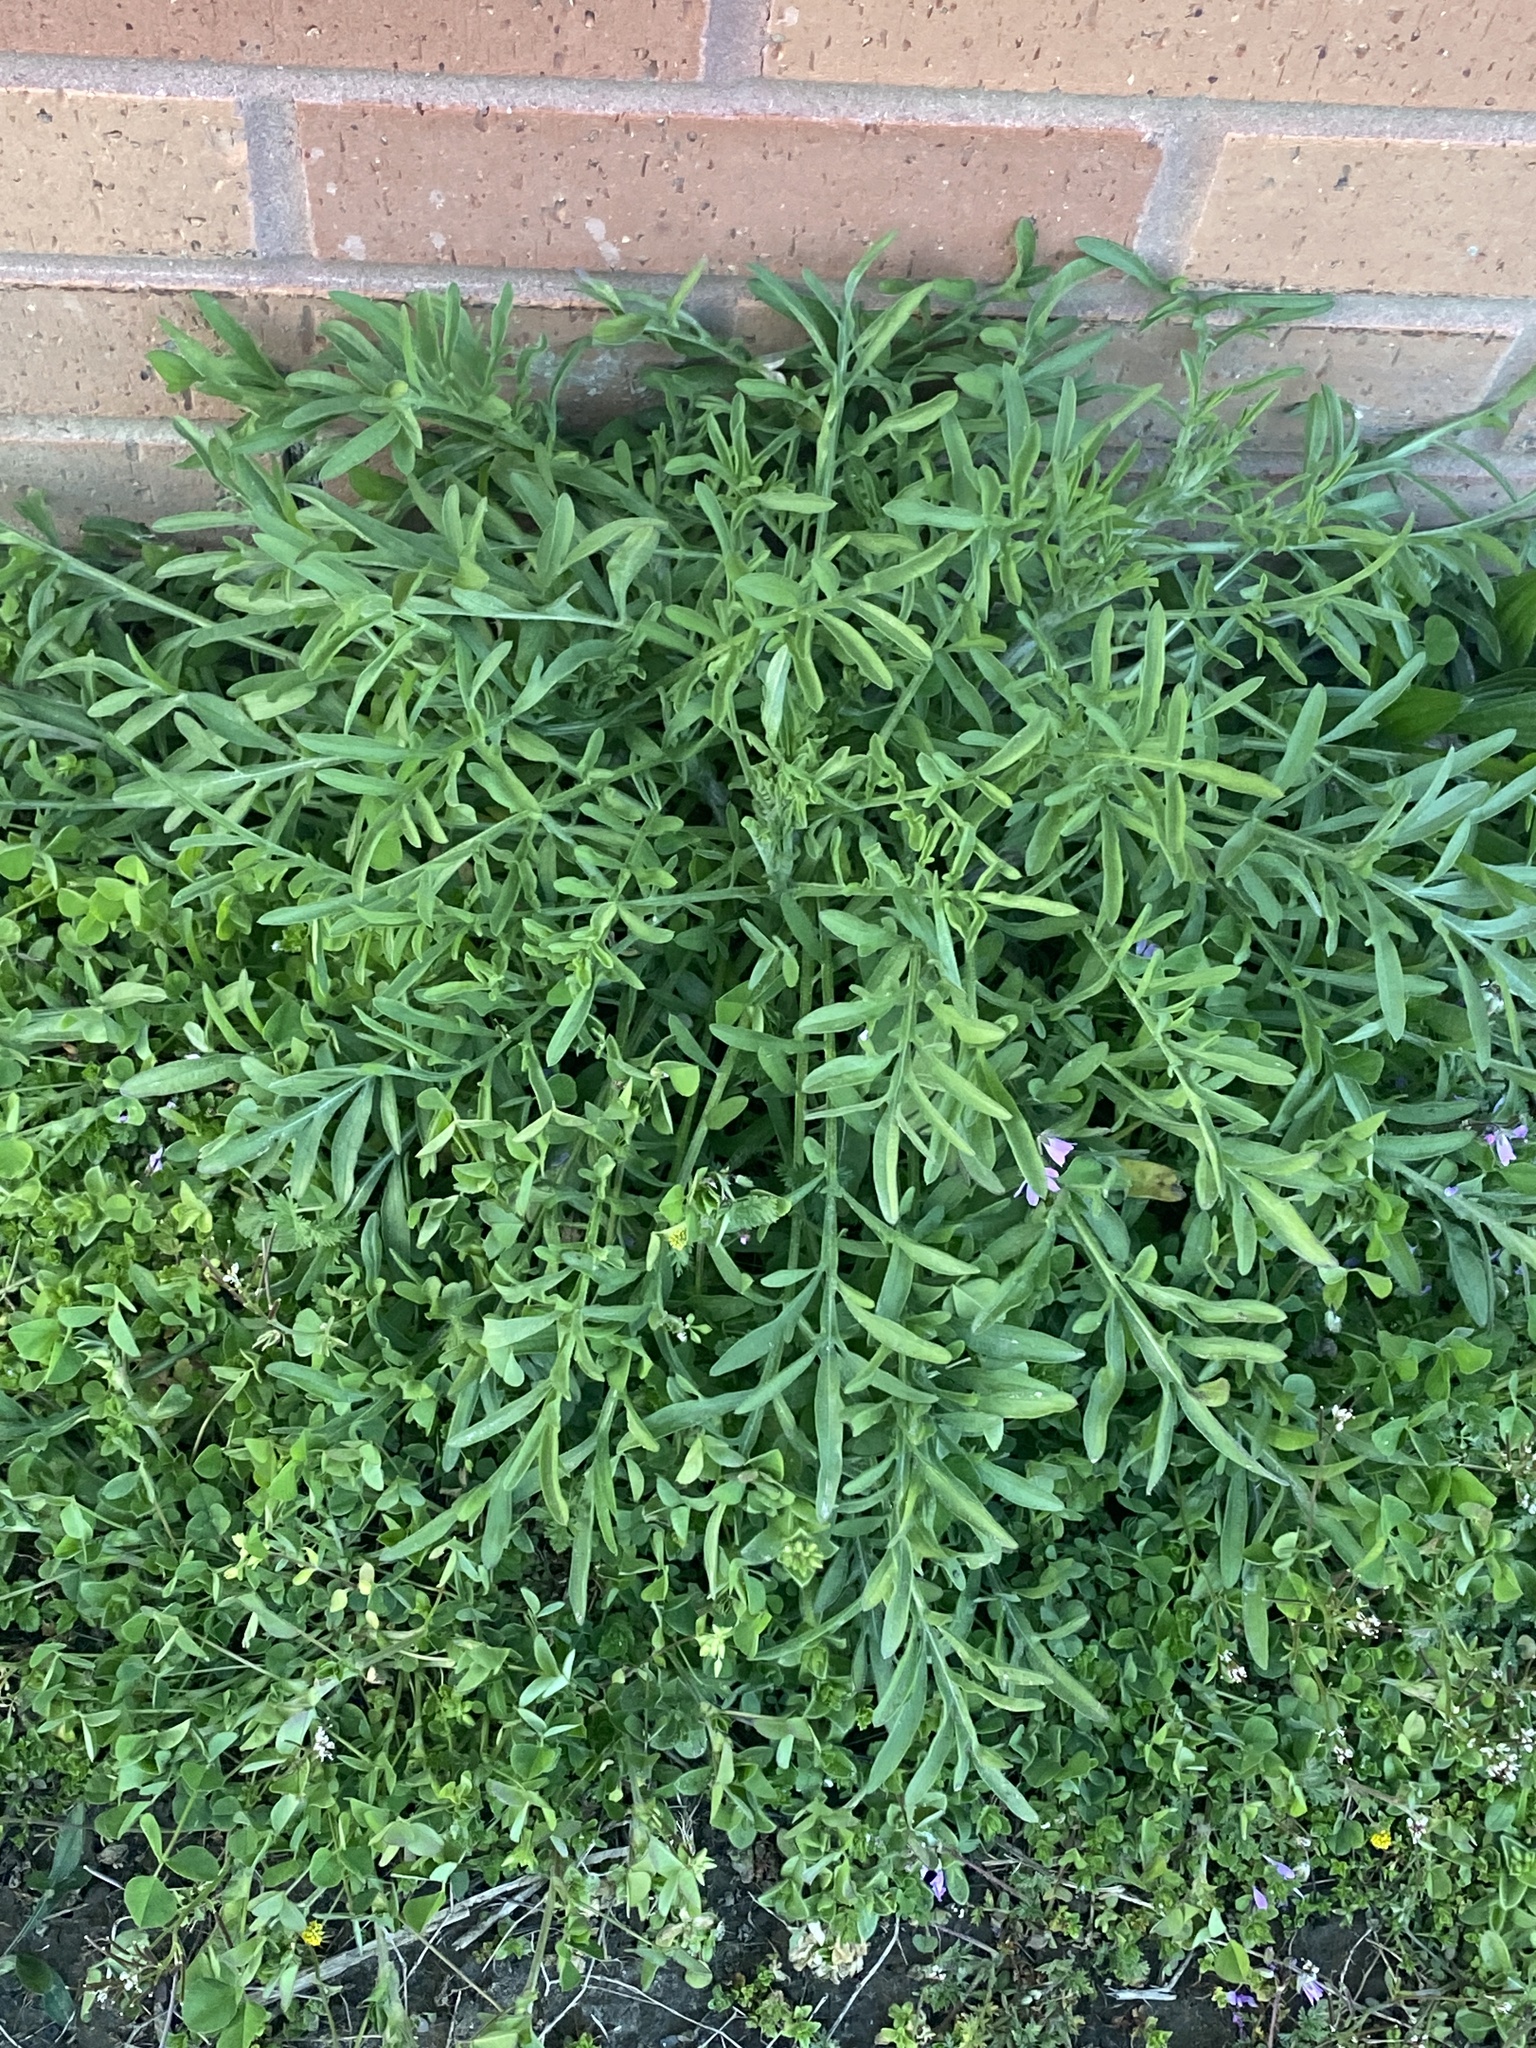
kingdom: Plantae
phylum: Tracheophyta
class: Magnoliopsida
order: Asterales
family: Asteraceae
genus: Centaurea
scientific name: Centaurea stoebe
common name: Spotted knapweed
